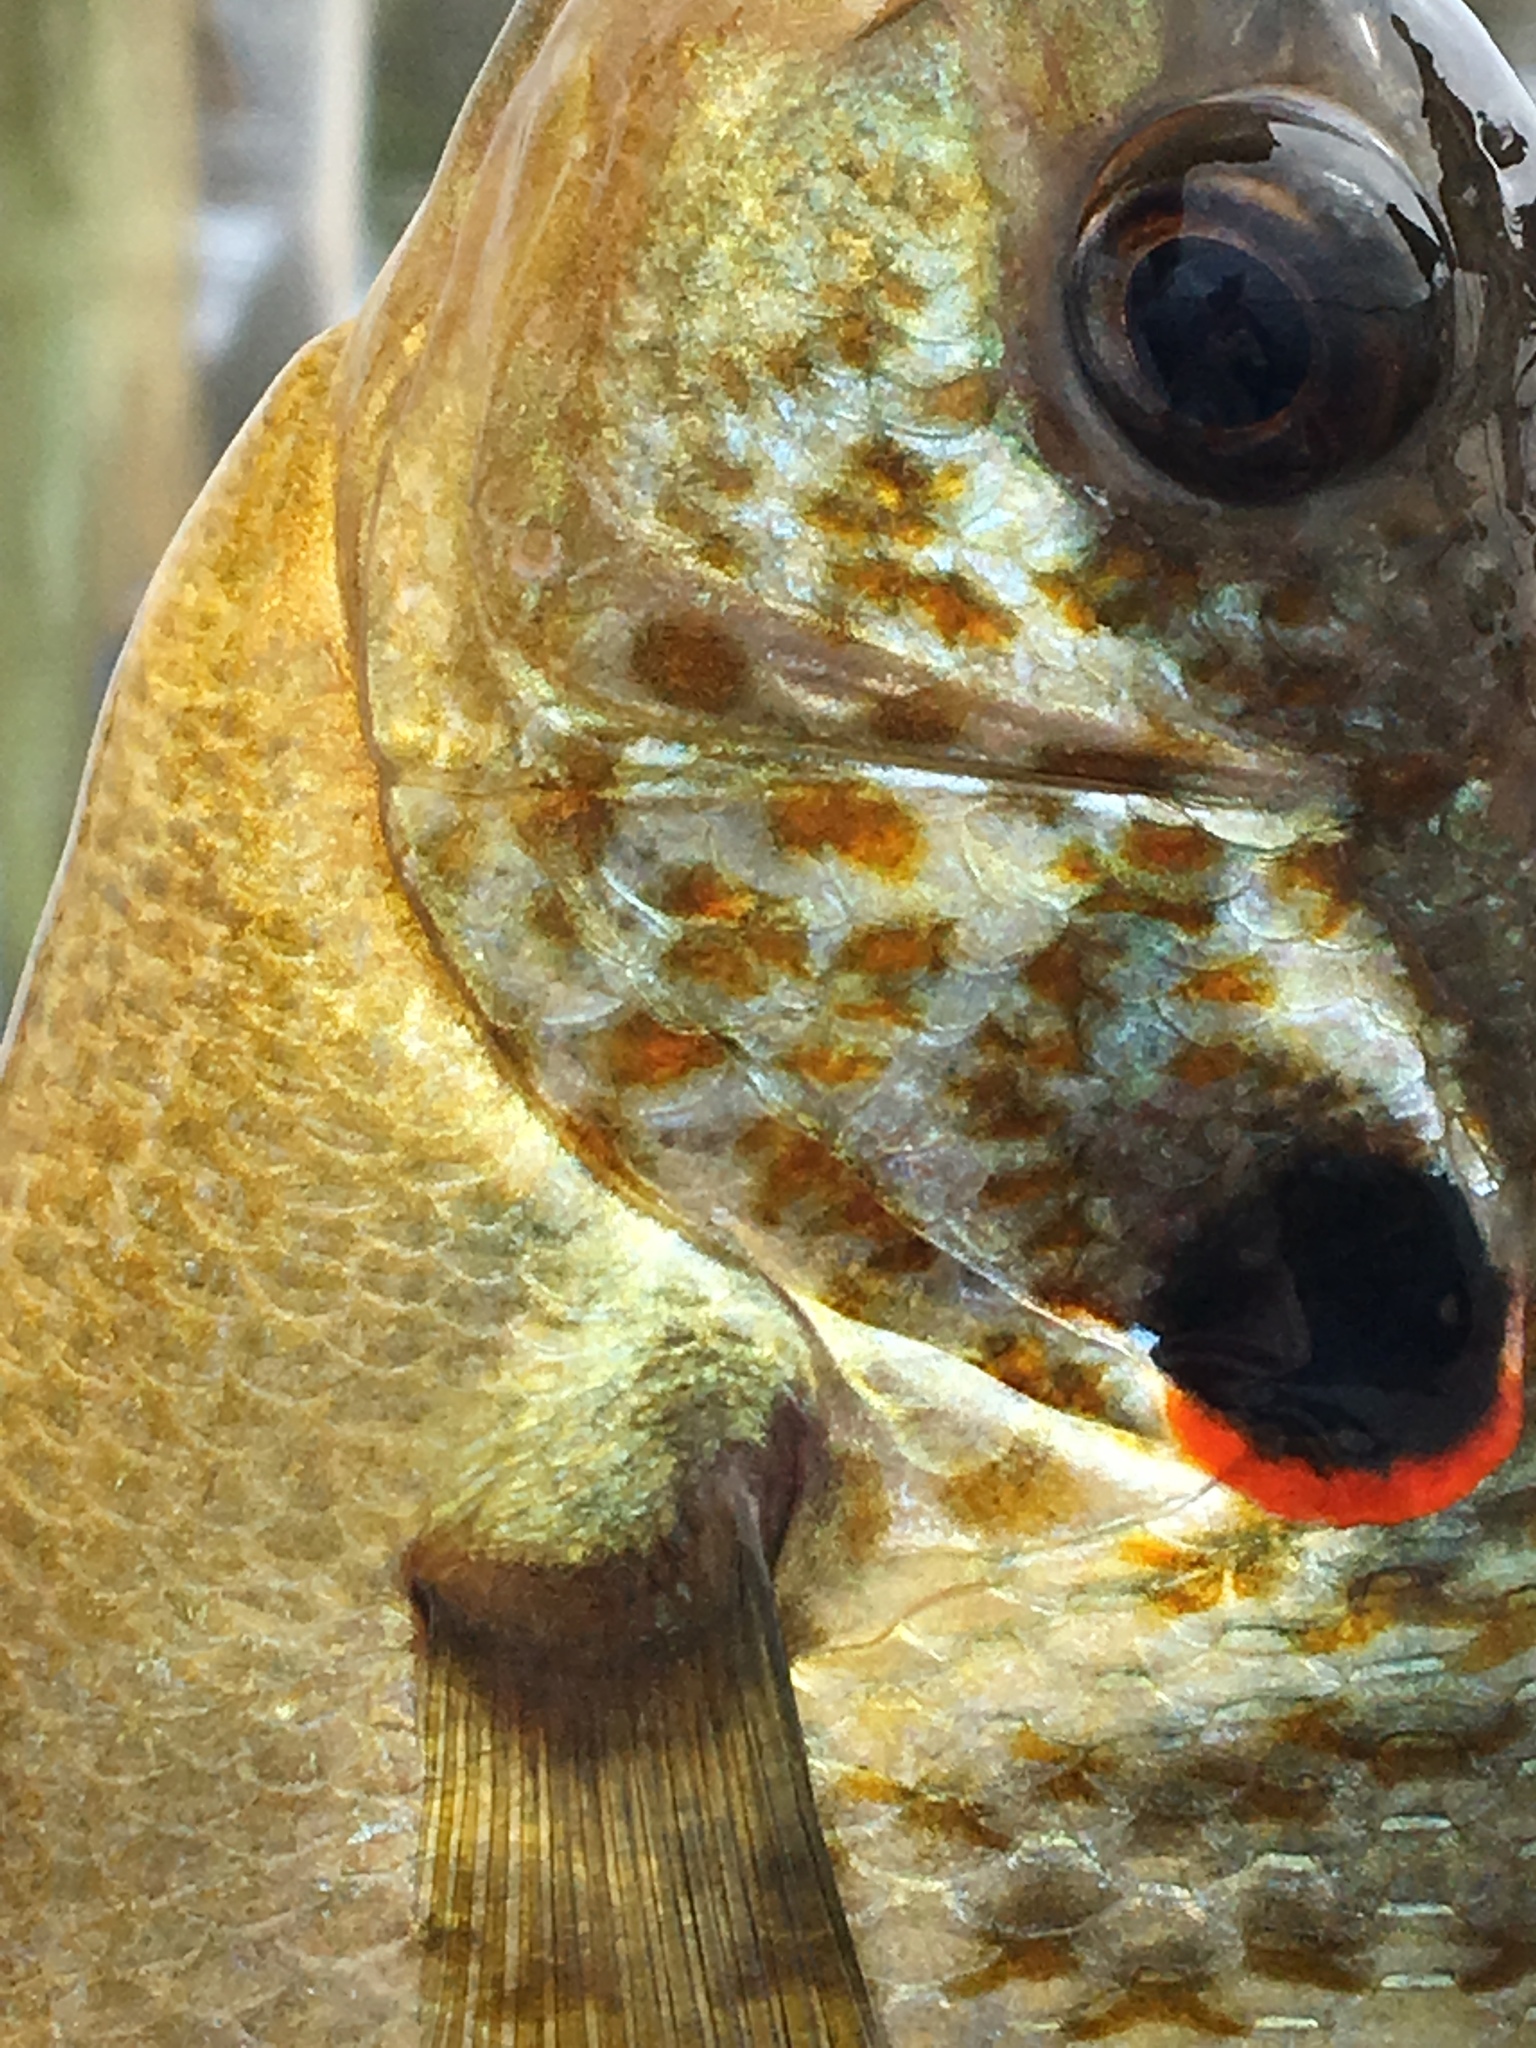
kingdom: Animalia
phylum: Chordata
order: Perciformes
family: Centrarchidae
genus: Lepomis
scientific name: Lepomis microlophus
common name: Redear sunfish
